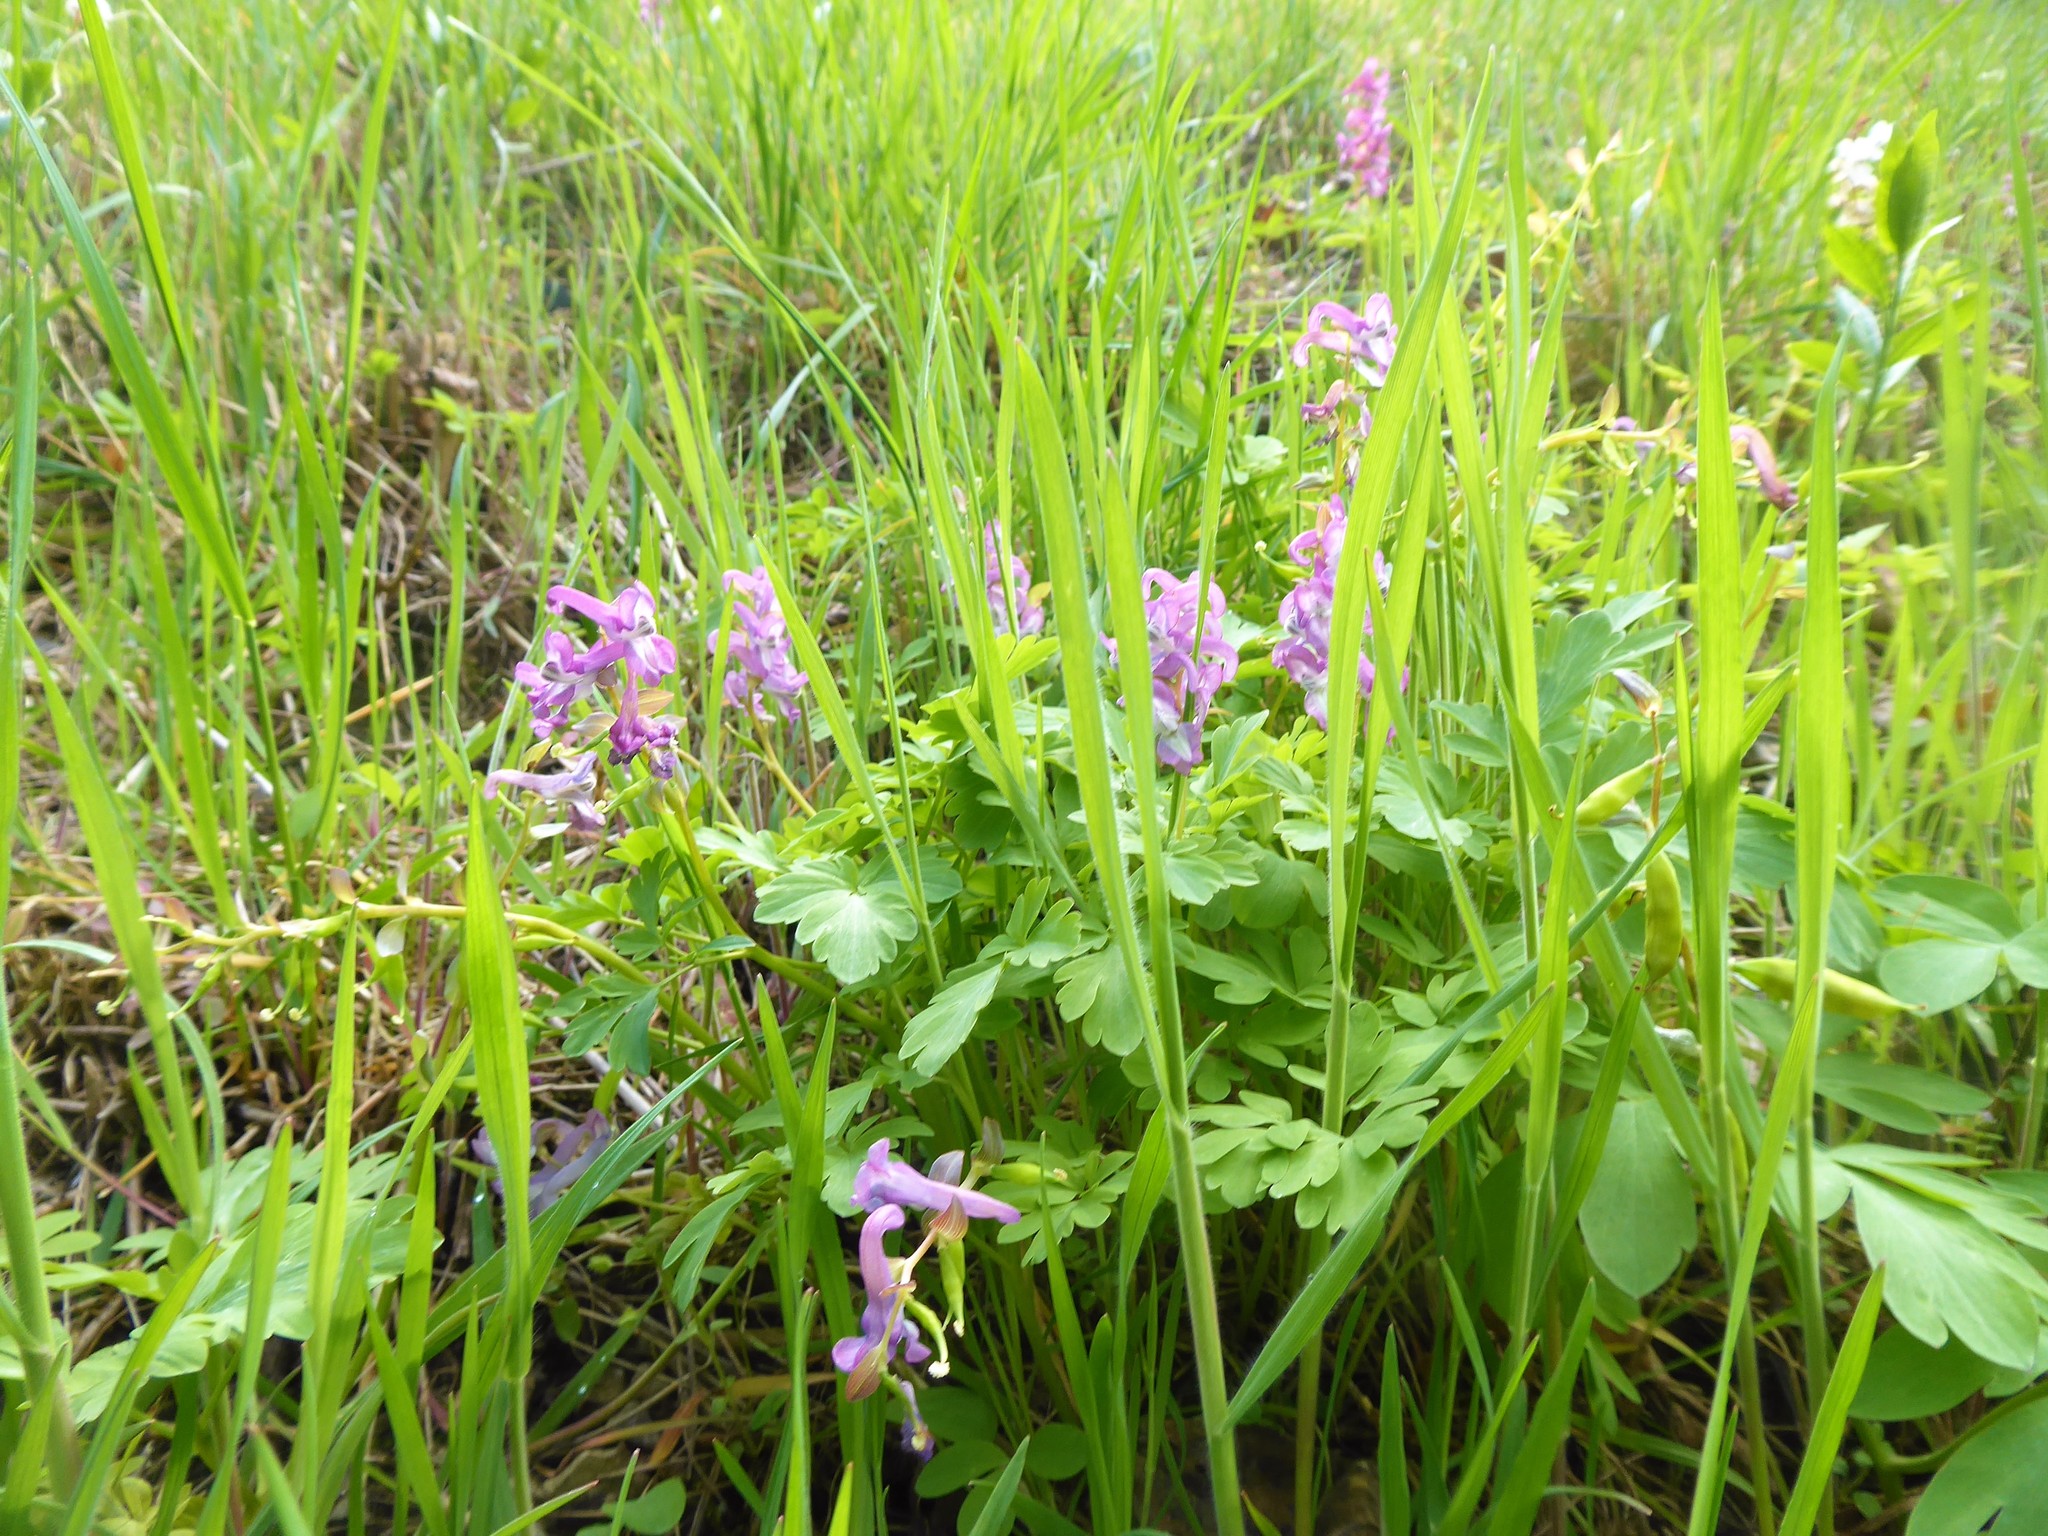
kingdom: Plantae
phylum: Tracheophyta
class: Magnoliopsida
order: Ranunculales
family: Papaveraceae
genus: Corydalis
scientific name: Corydalis cava
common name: Hollowroot
